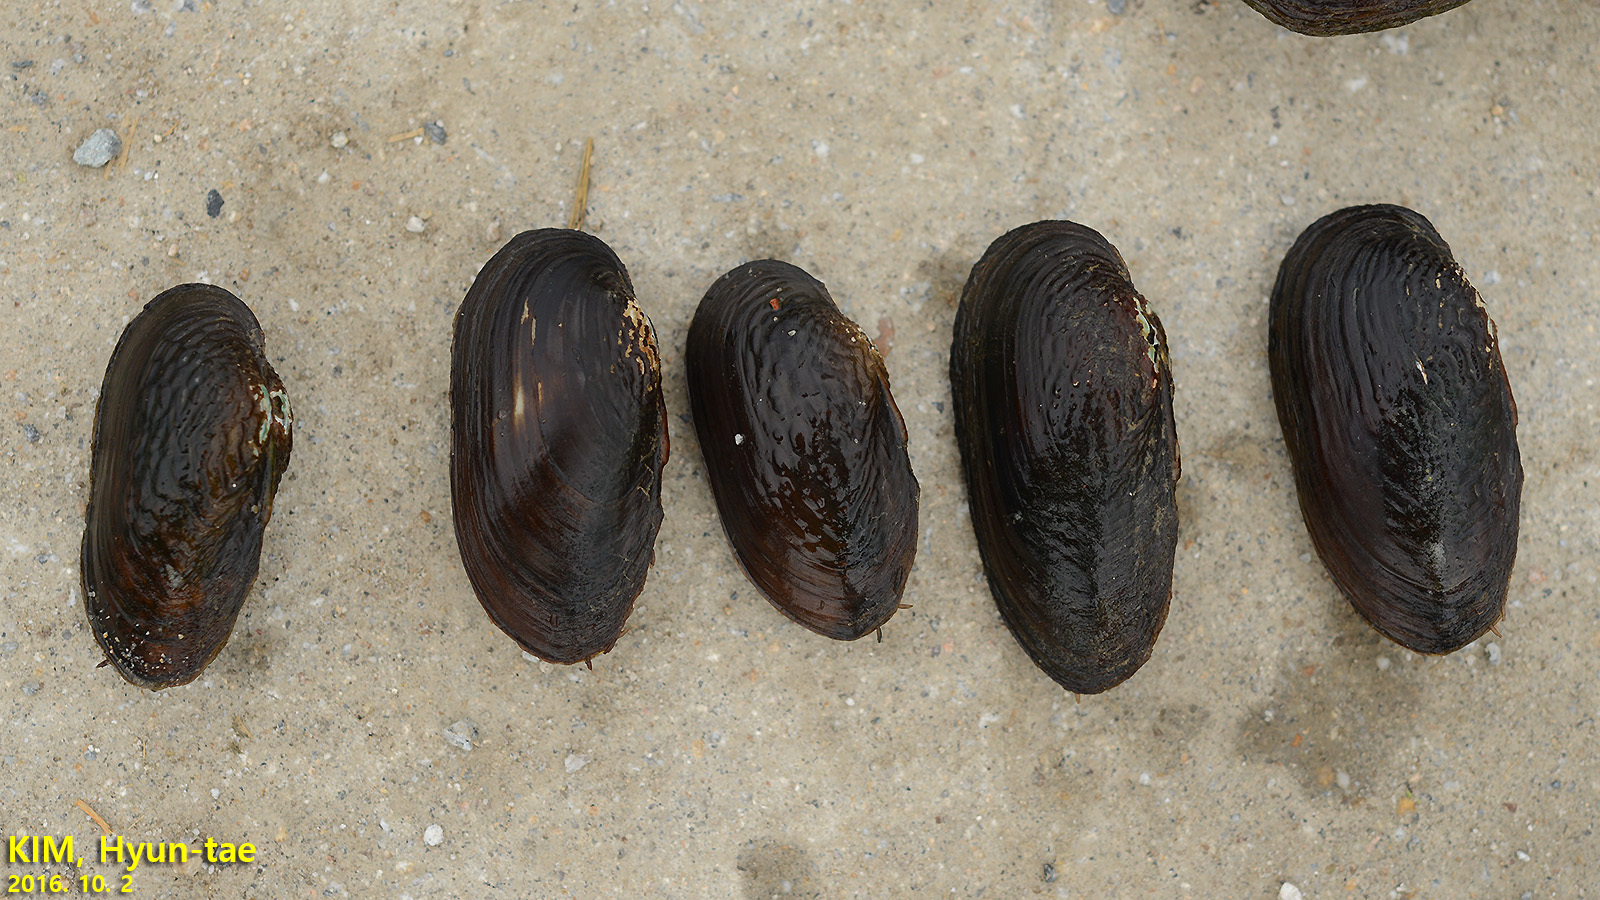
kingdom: Animalia
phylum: Mollusca
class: Bivalvia
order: Unionida
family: Unionidae
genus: Nodularia
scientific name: Nodularia douglasiae
